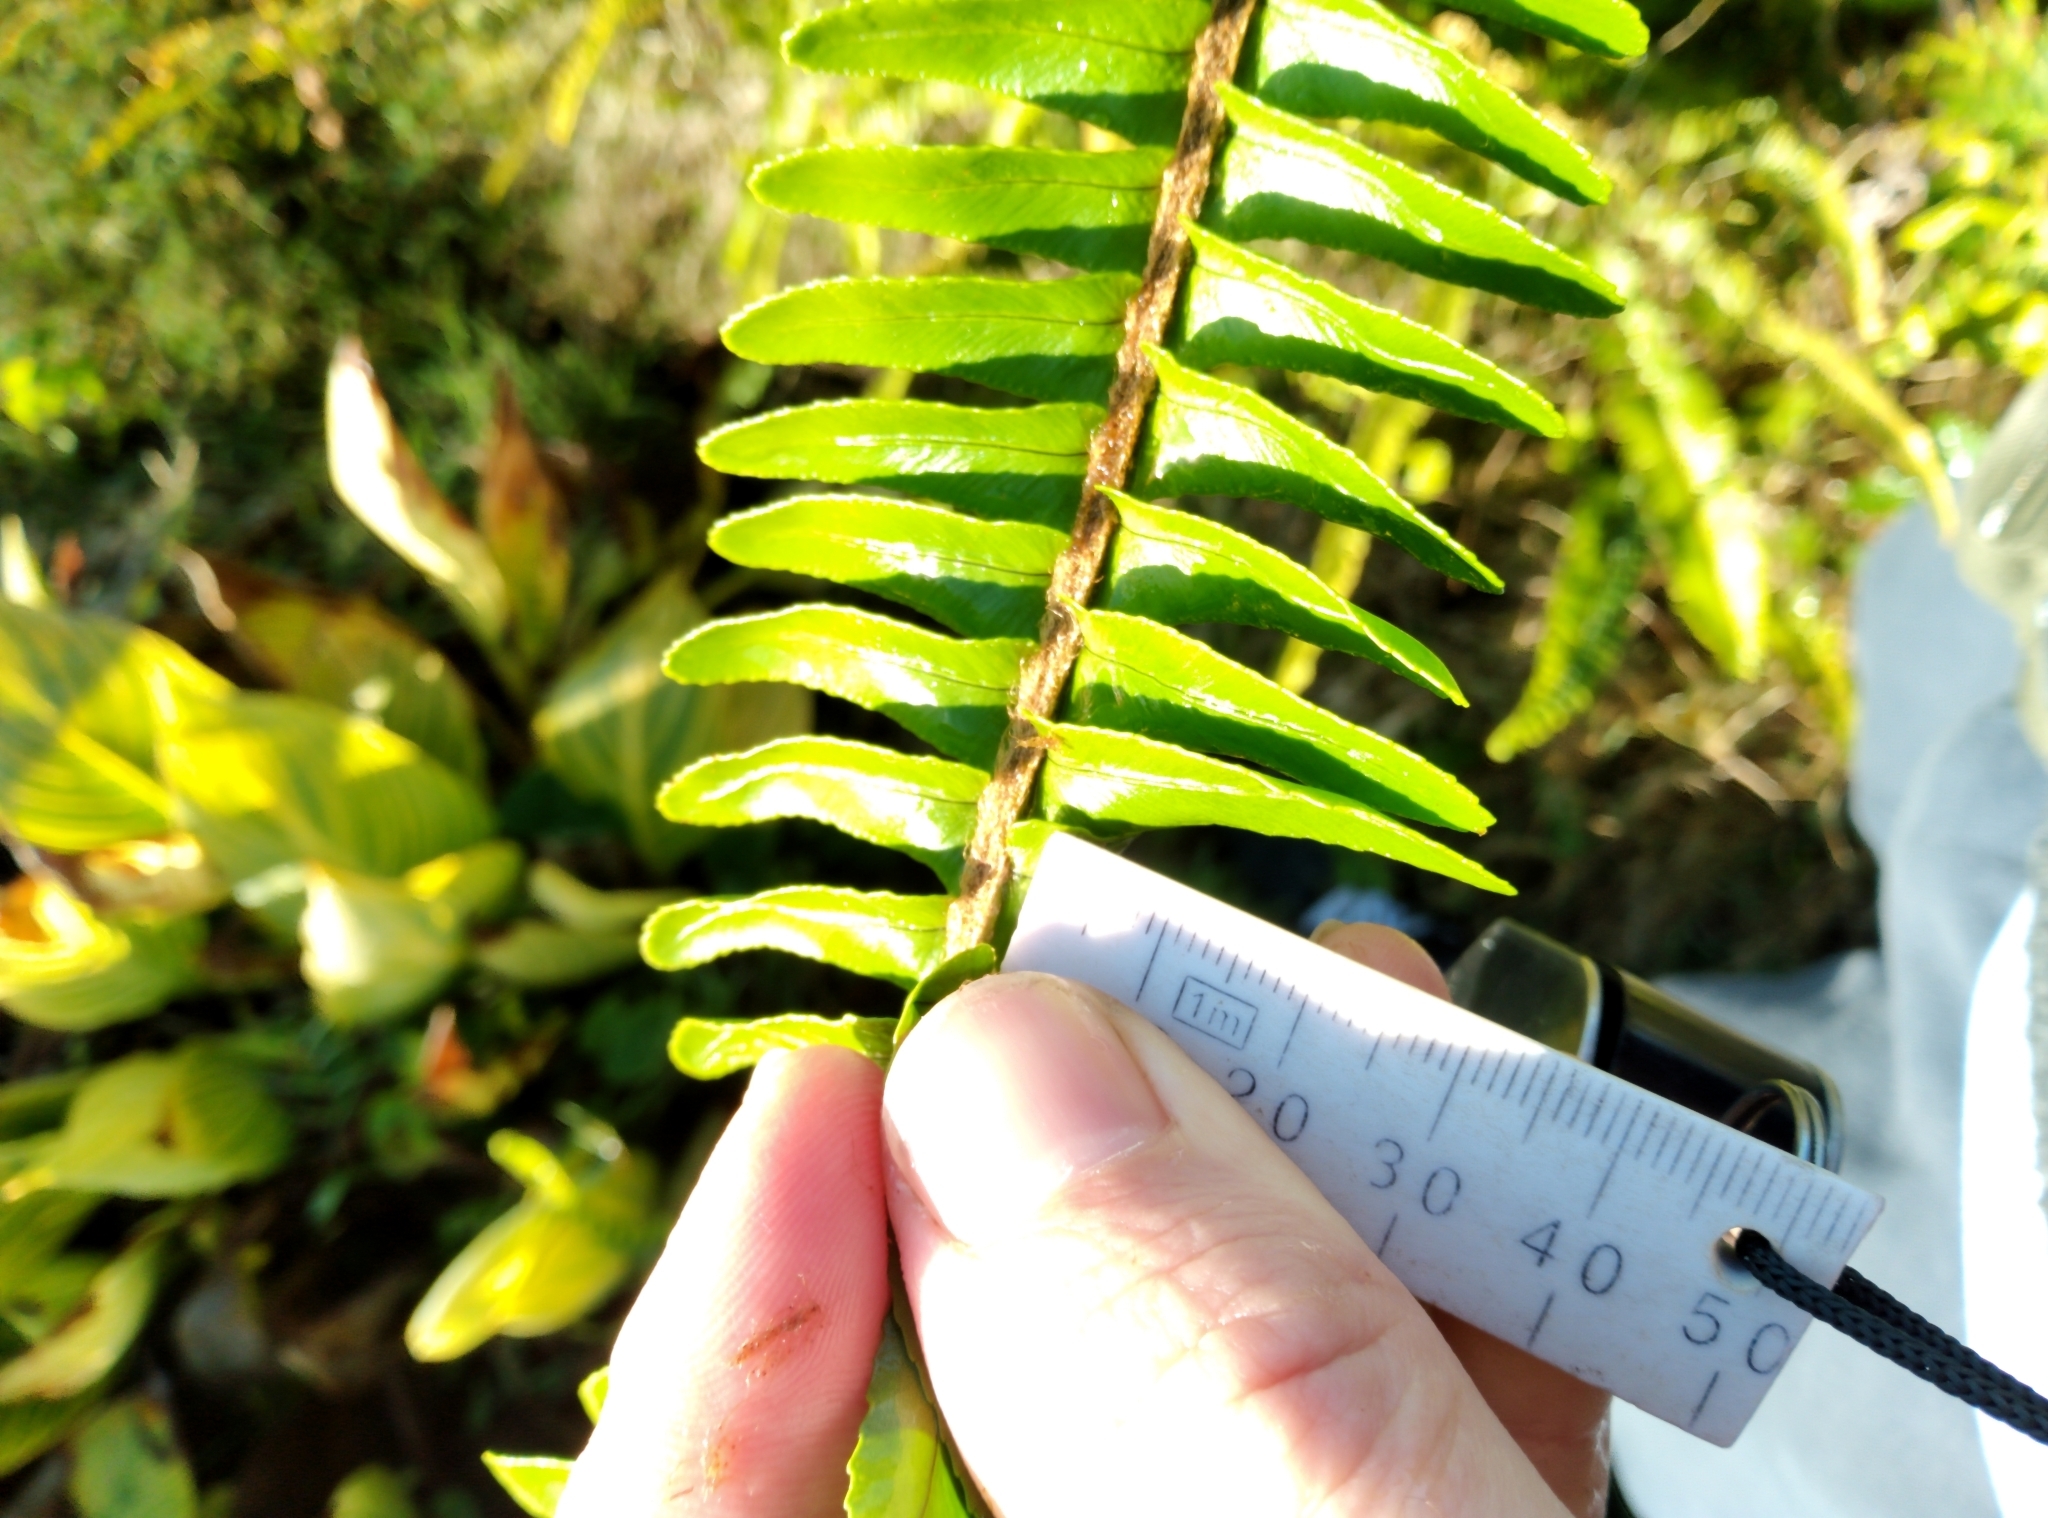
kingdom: Plantae
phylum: Tracheophyta
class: Polypodiopsida
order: Polypodiales
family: Nephrolepidaceae
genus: Nephrolepis
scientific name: Nephrolepis cordifolia
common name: Narrow swordfern
